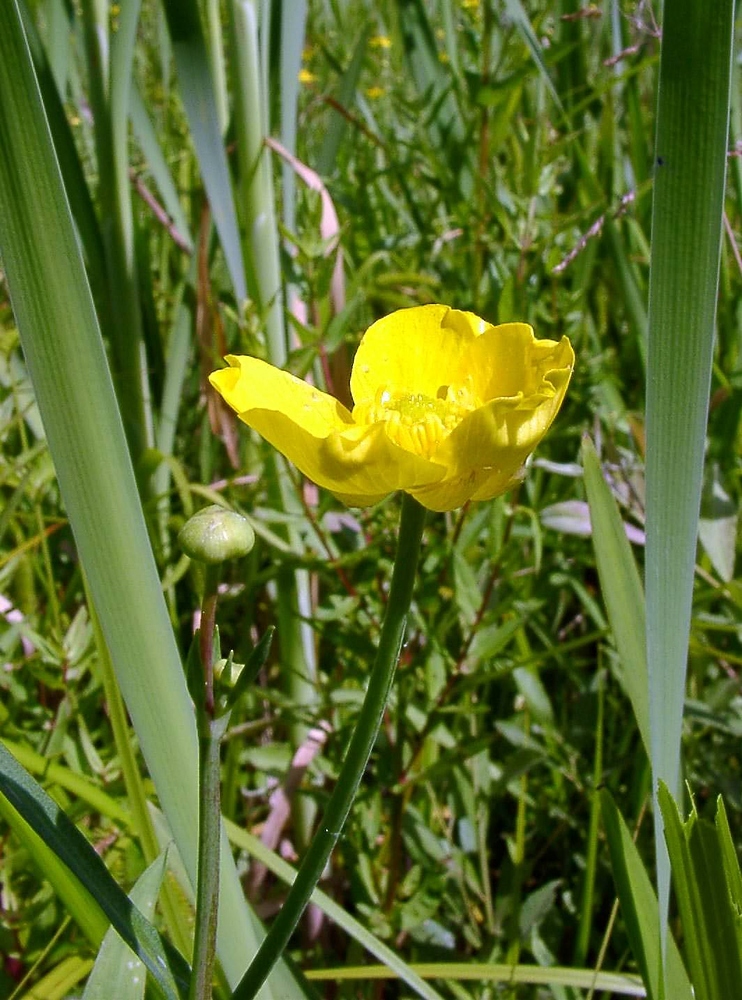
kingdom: Plantae
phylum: Tracheophyta
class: Magnoliopsida
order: Ranunculales
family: Ranunculaceae
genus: Ranunculus
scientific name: Ranunculus lingua
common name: Greater spearwort
